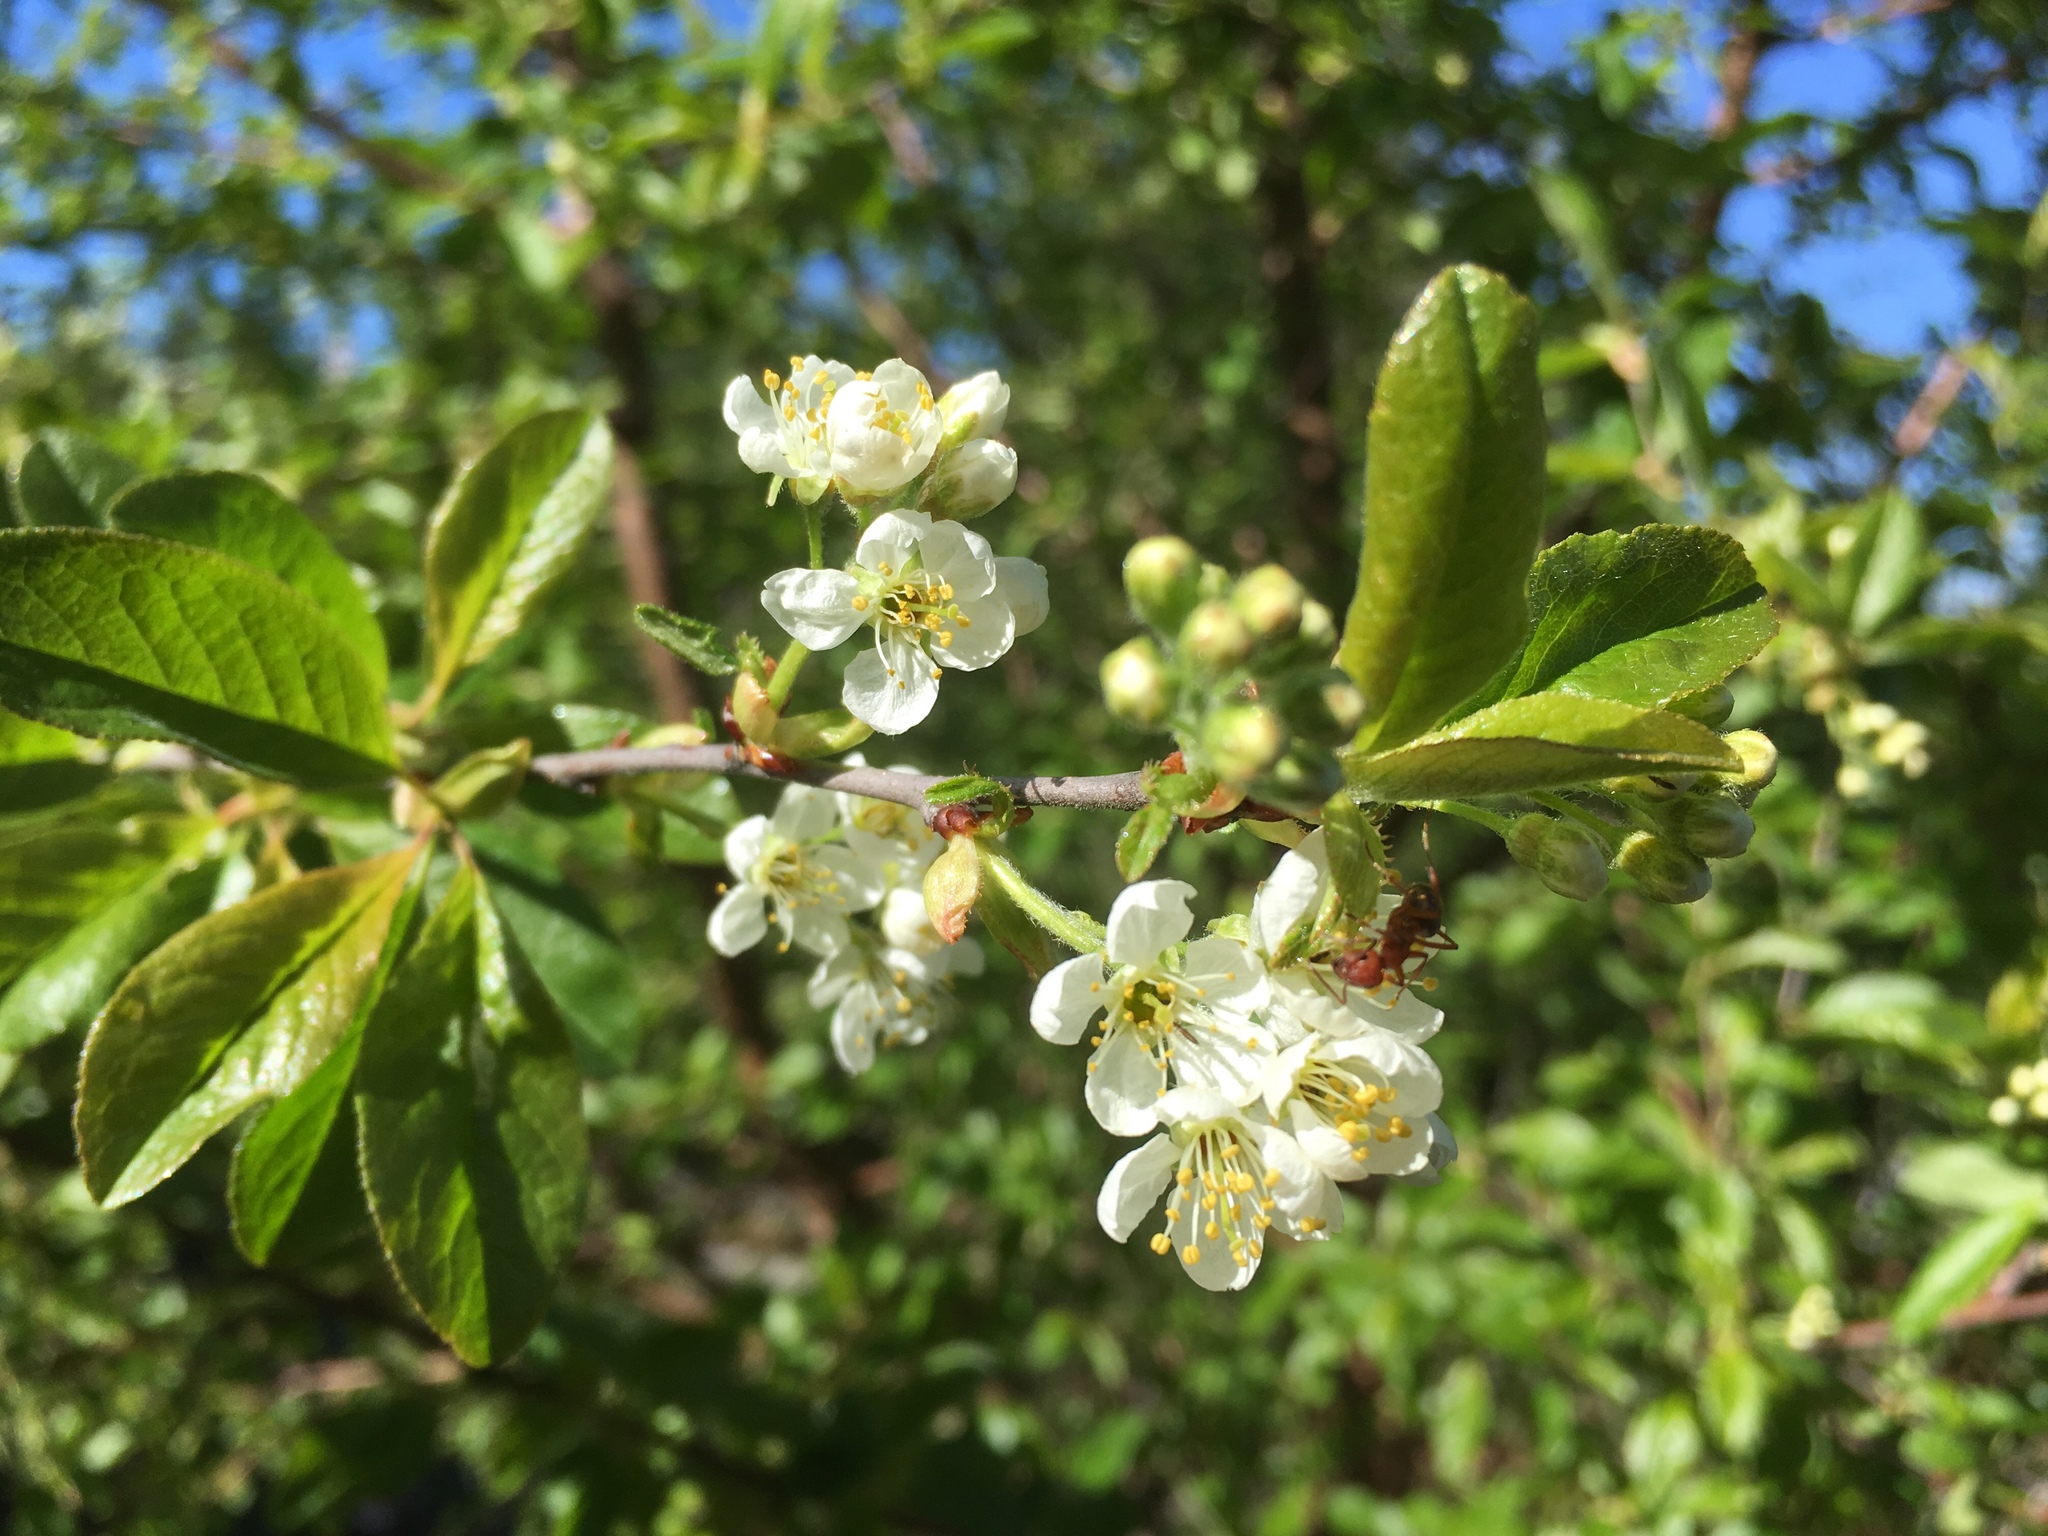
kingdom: Plantae
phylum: Tracheophyta
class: Magnoliopsida
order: Rosales
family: Rosaceae
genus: Prunus
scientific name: Prunus emarginata
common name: Bitter cherry
